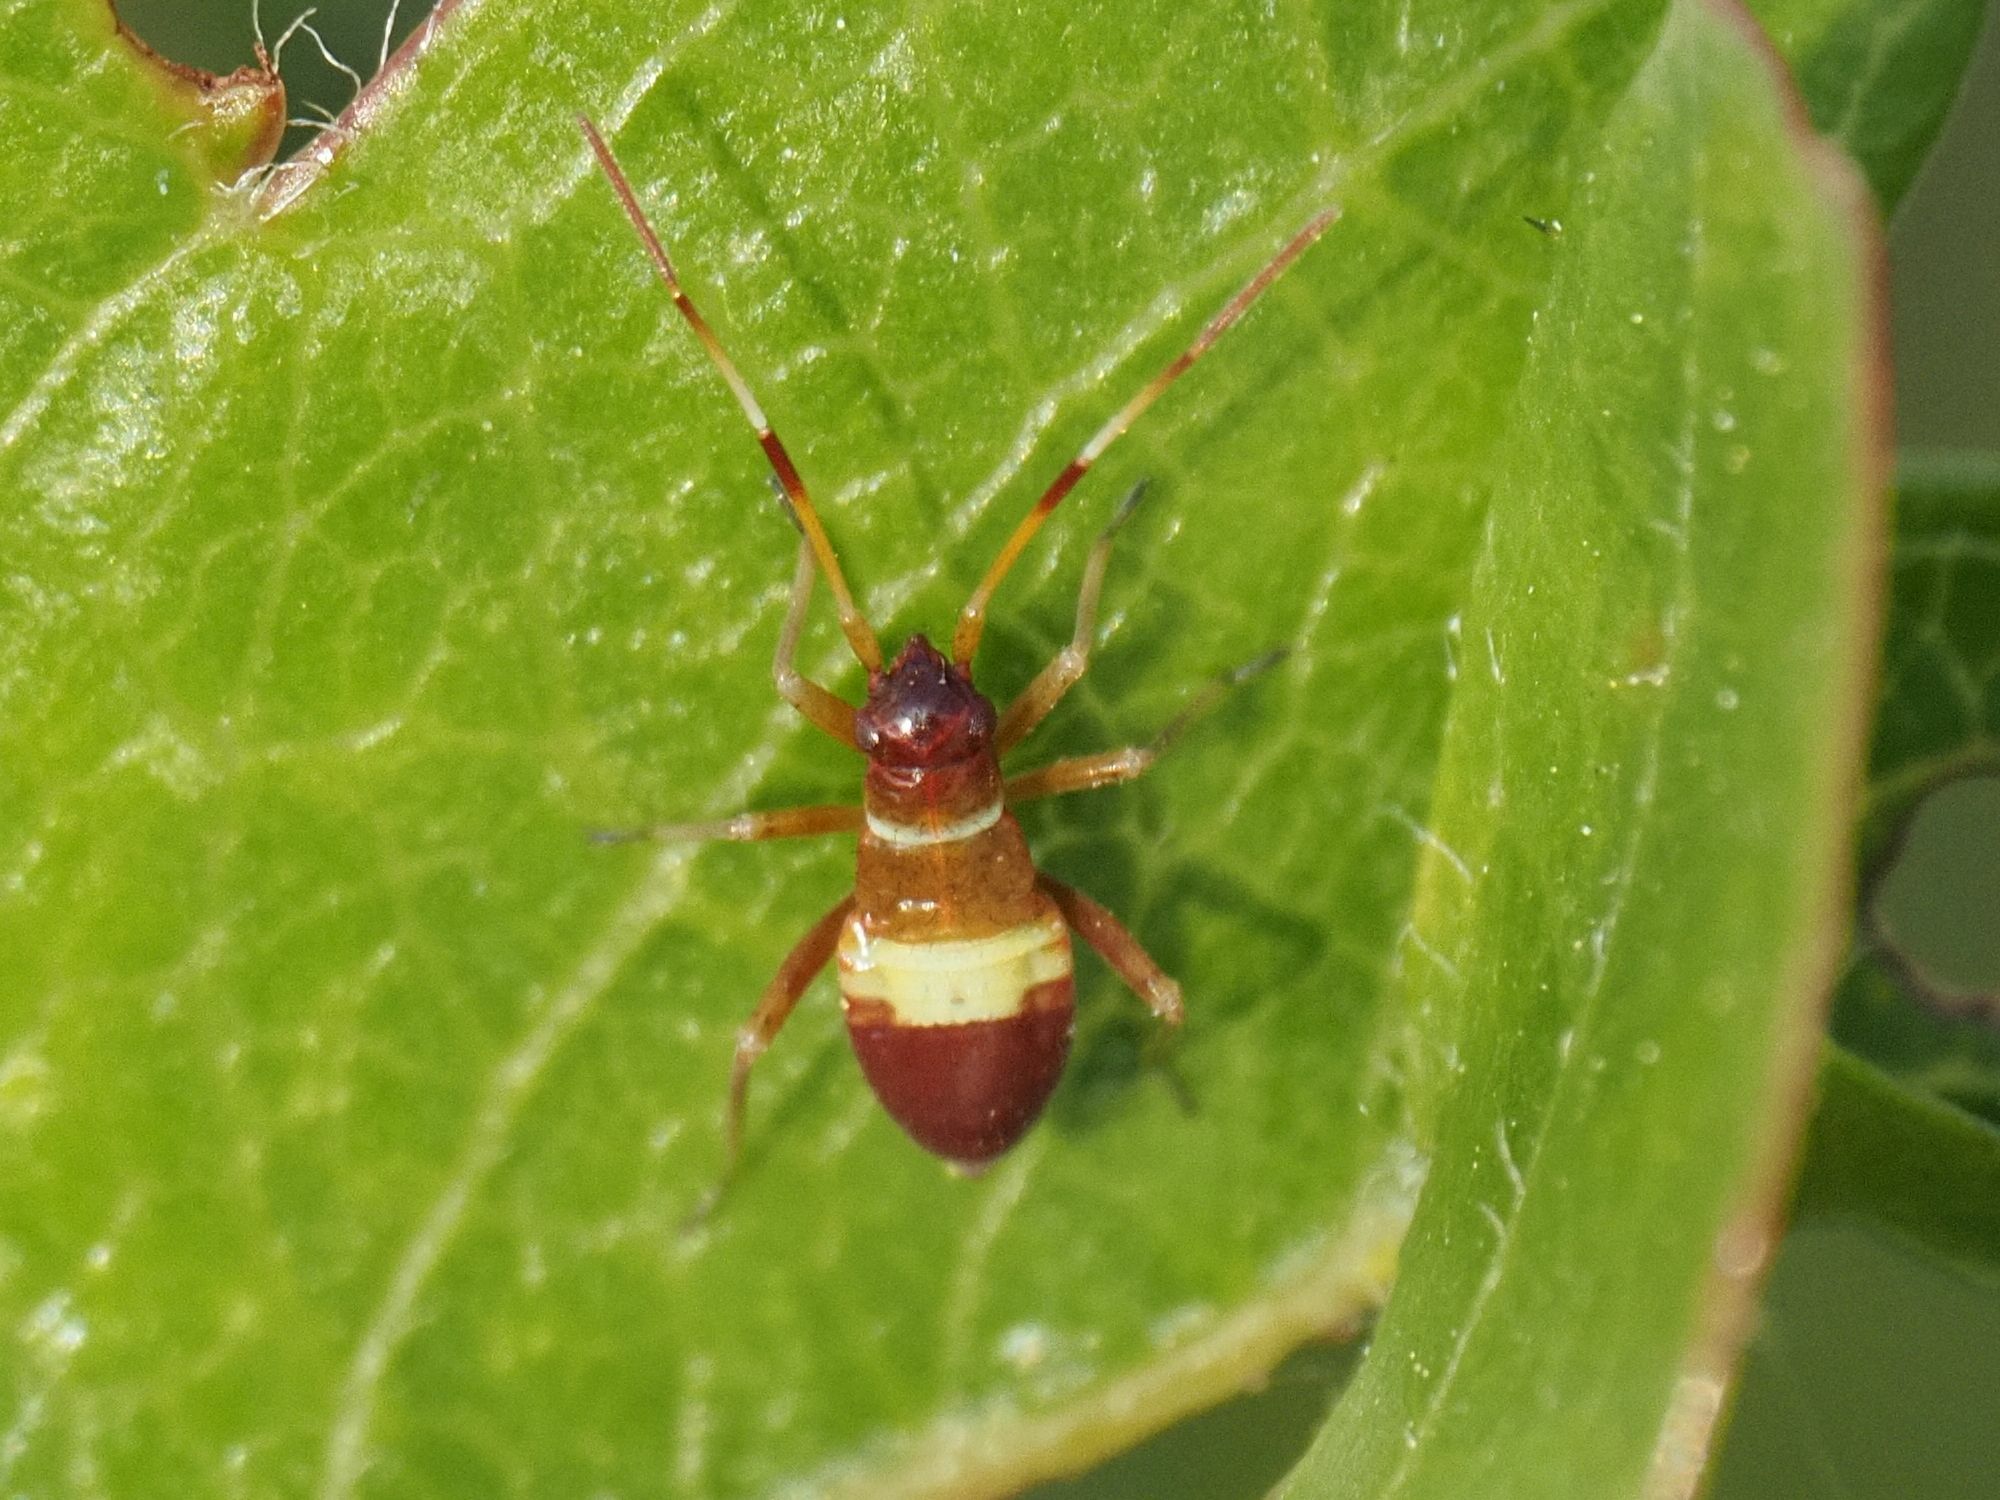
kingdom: Animalia
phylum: Arthropoda
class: Insecta
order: Hemiptera
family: Miridae
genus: Closterotomus
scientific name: Closterotomus biclavatus
